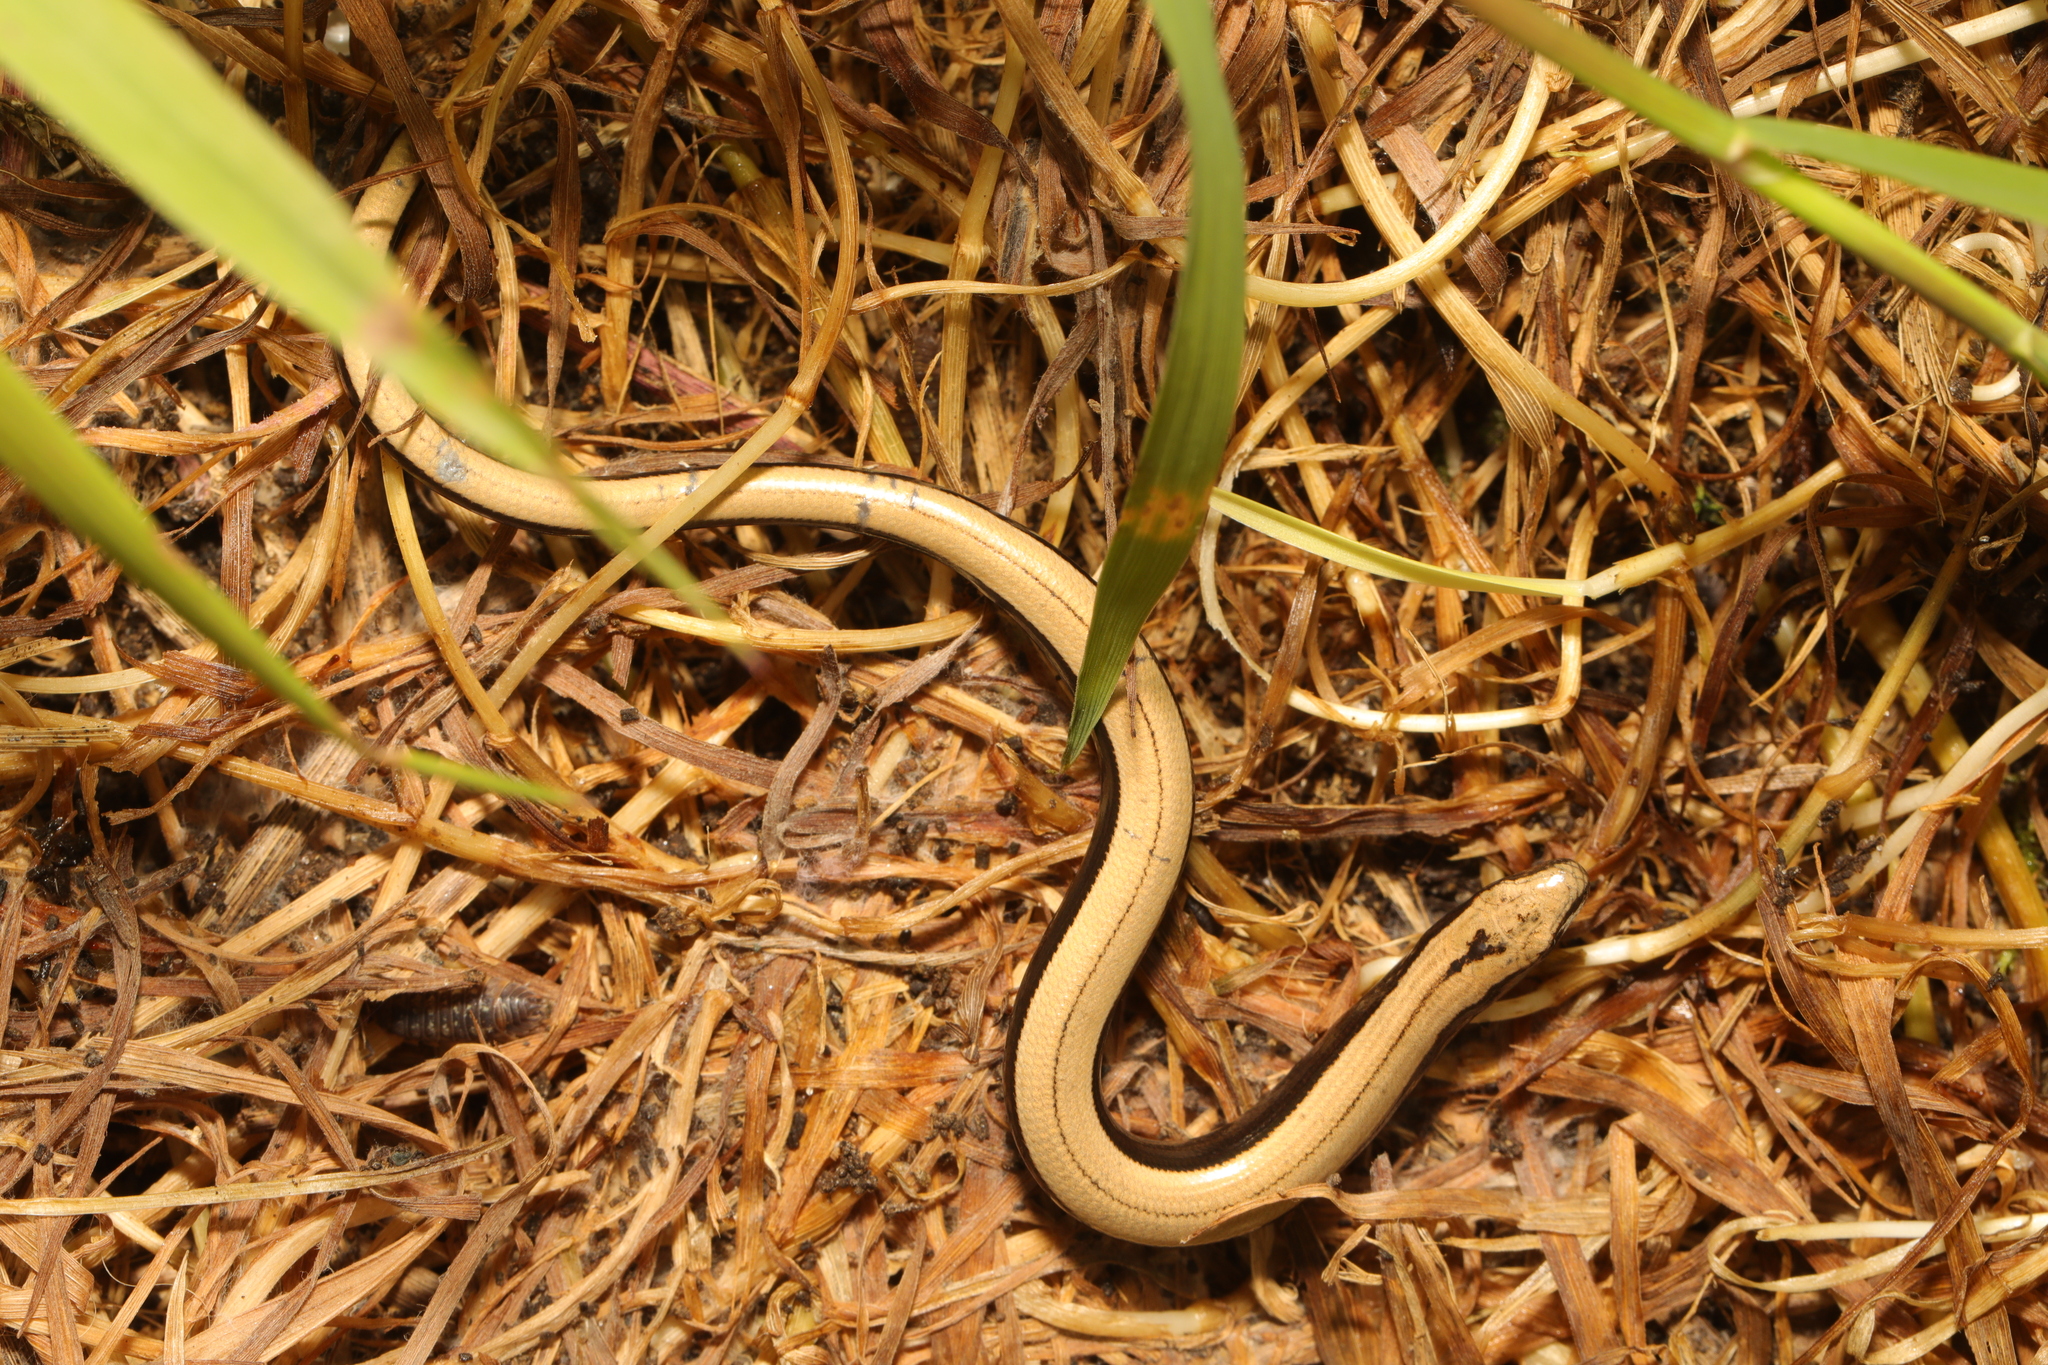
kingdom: Animalia
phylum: Chordata
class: Squamata
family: Anguidae
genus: Anguis
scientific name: Anguis fragilis
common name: Slow worm
